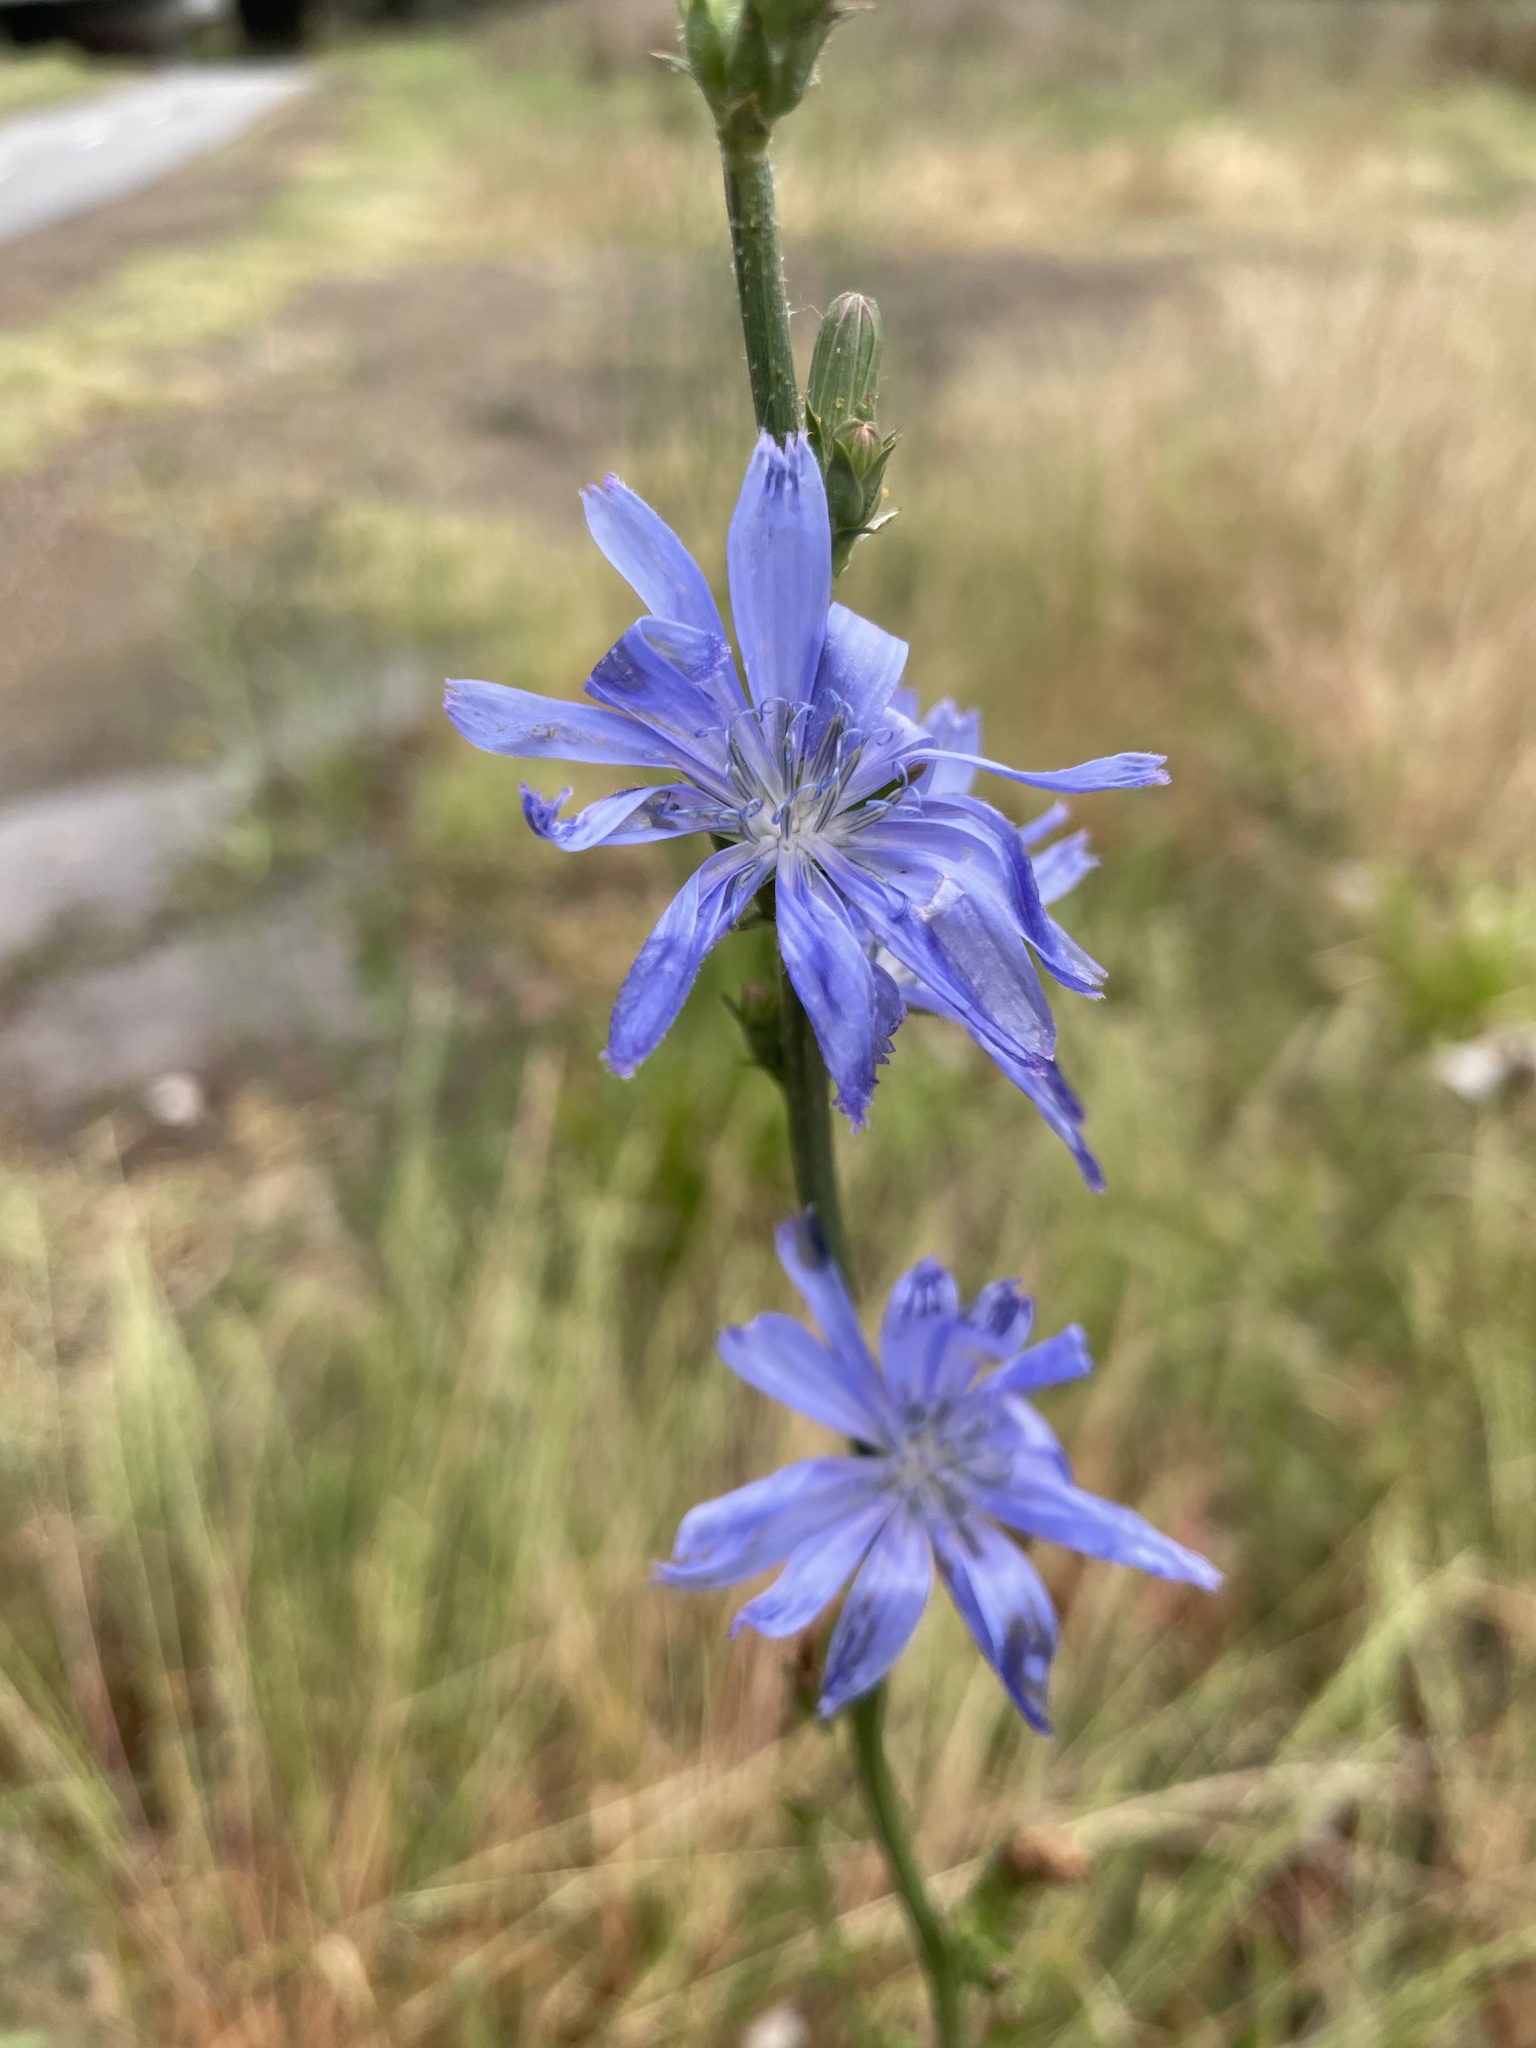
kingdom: Plantae
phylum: Tracheophyta
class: Magnoliopsida
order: Asterales
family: Asteraceae
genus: Cichorium
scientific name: Cichorium intybus
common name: Chicory
